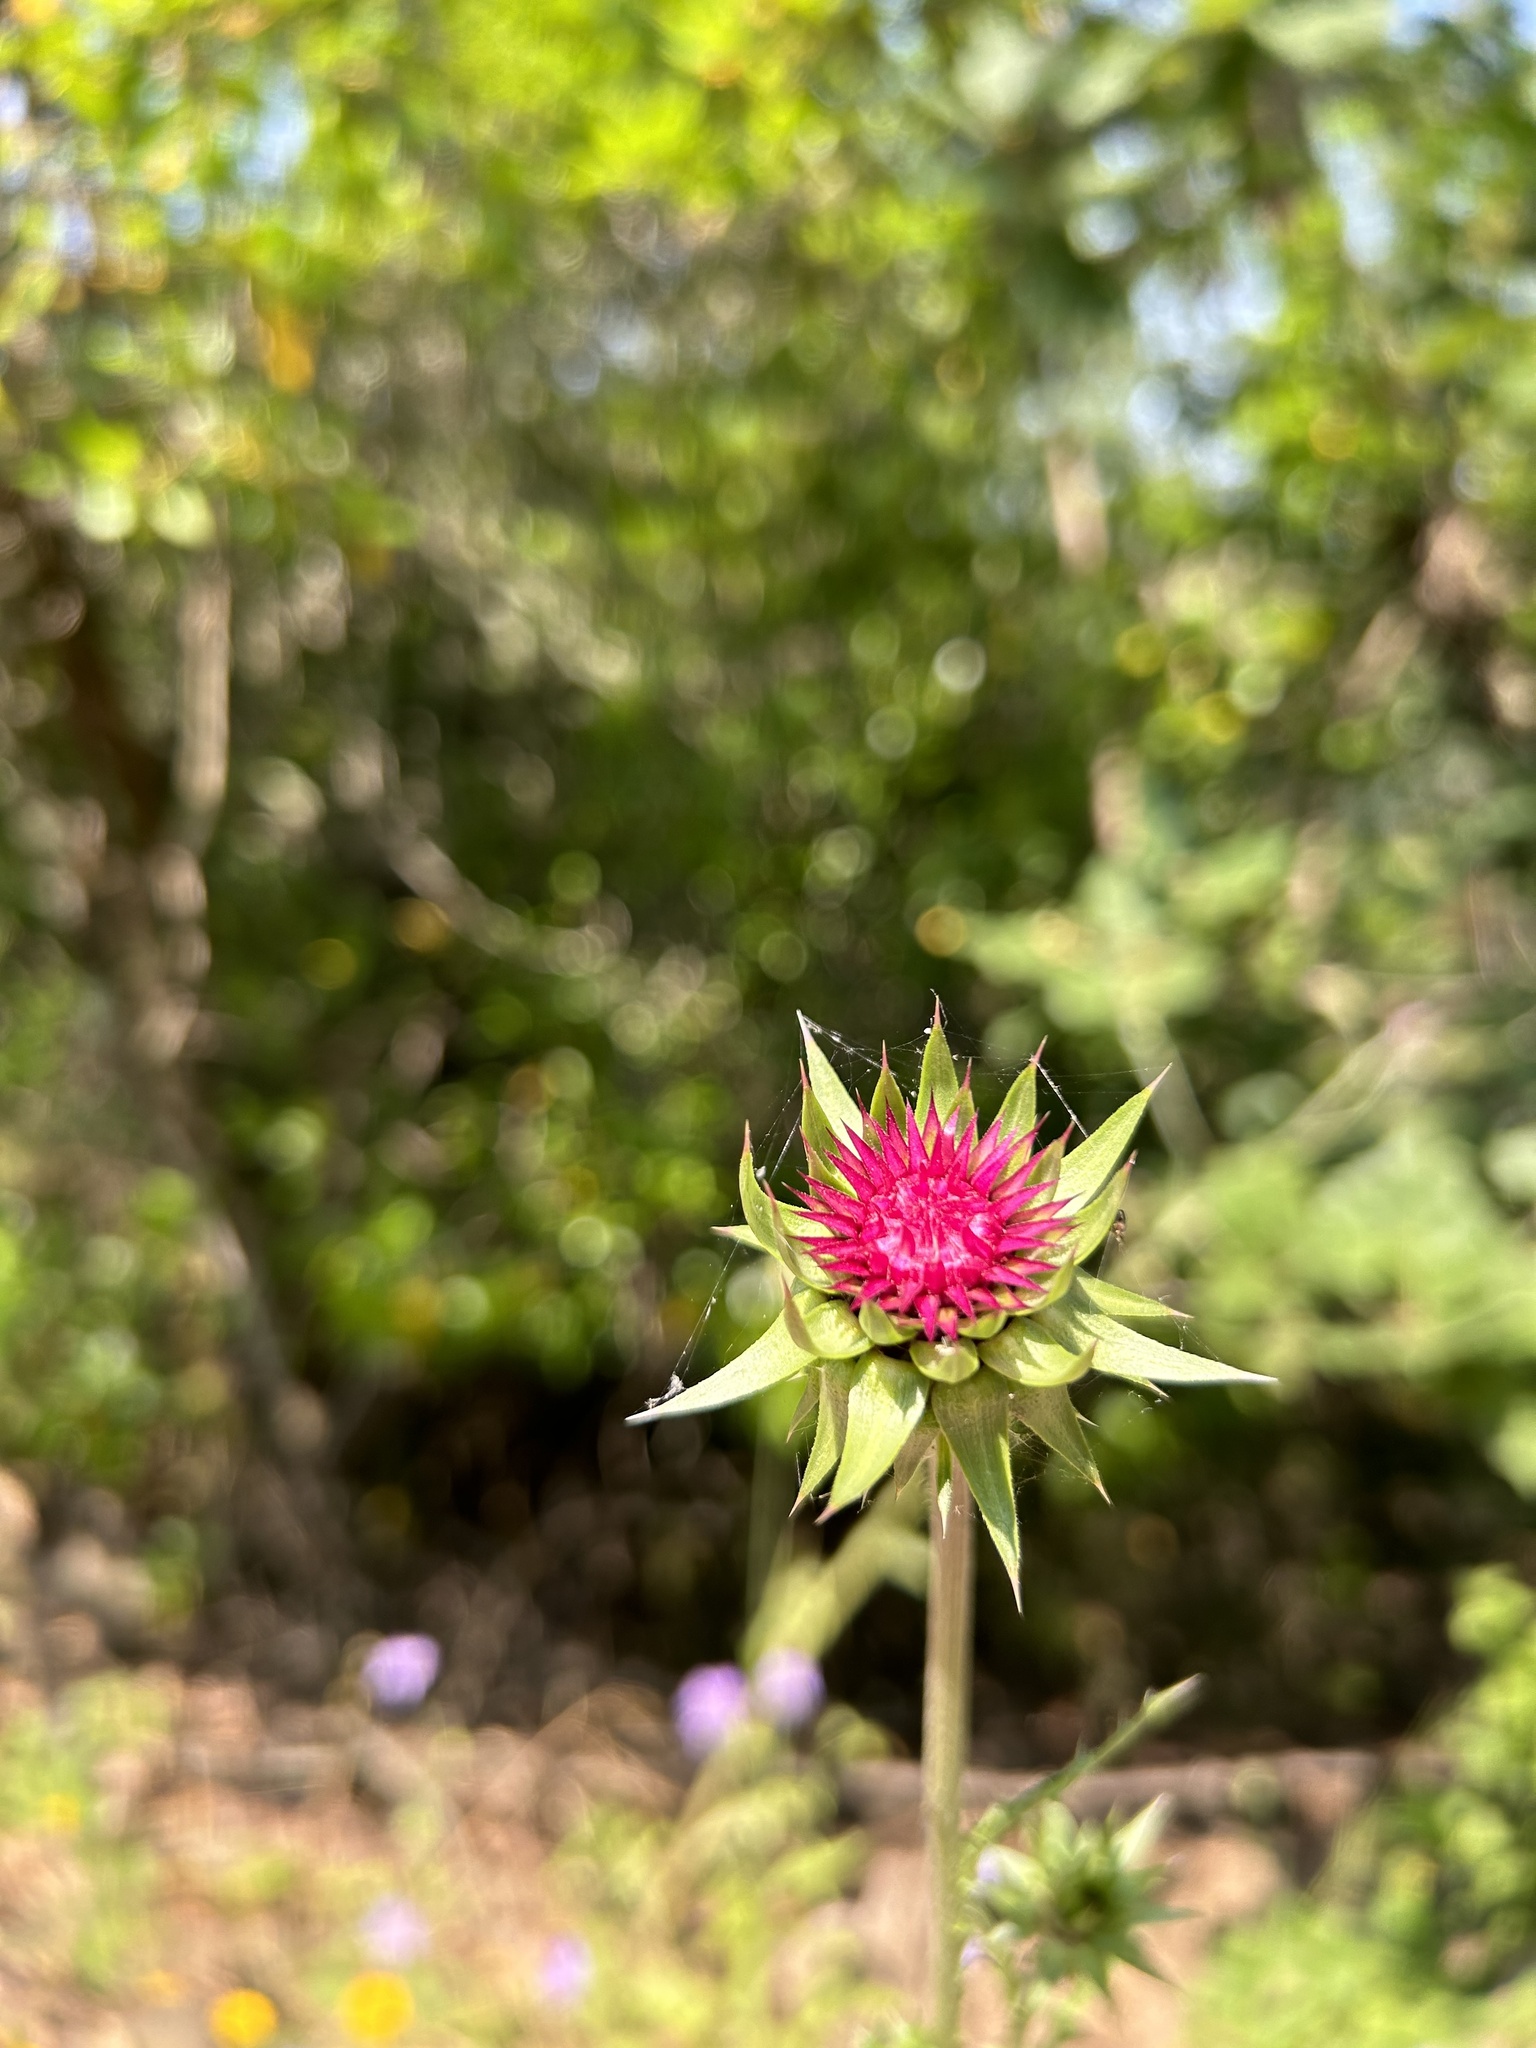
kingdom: Plantae
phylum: Tracheophyta
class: Magnoliopsida
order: Asterales
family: Asteraceae
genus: Carduus
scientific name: Carduus nutans
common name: Musk thistle
